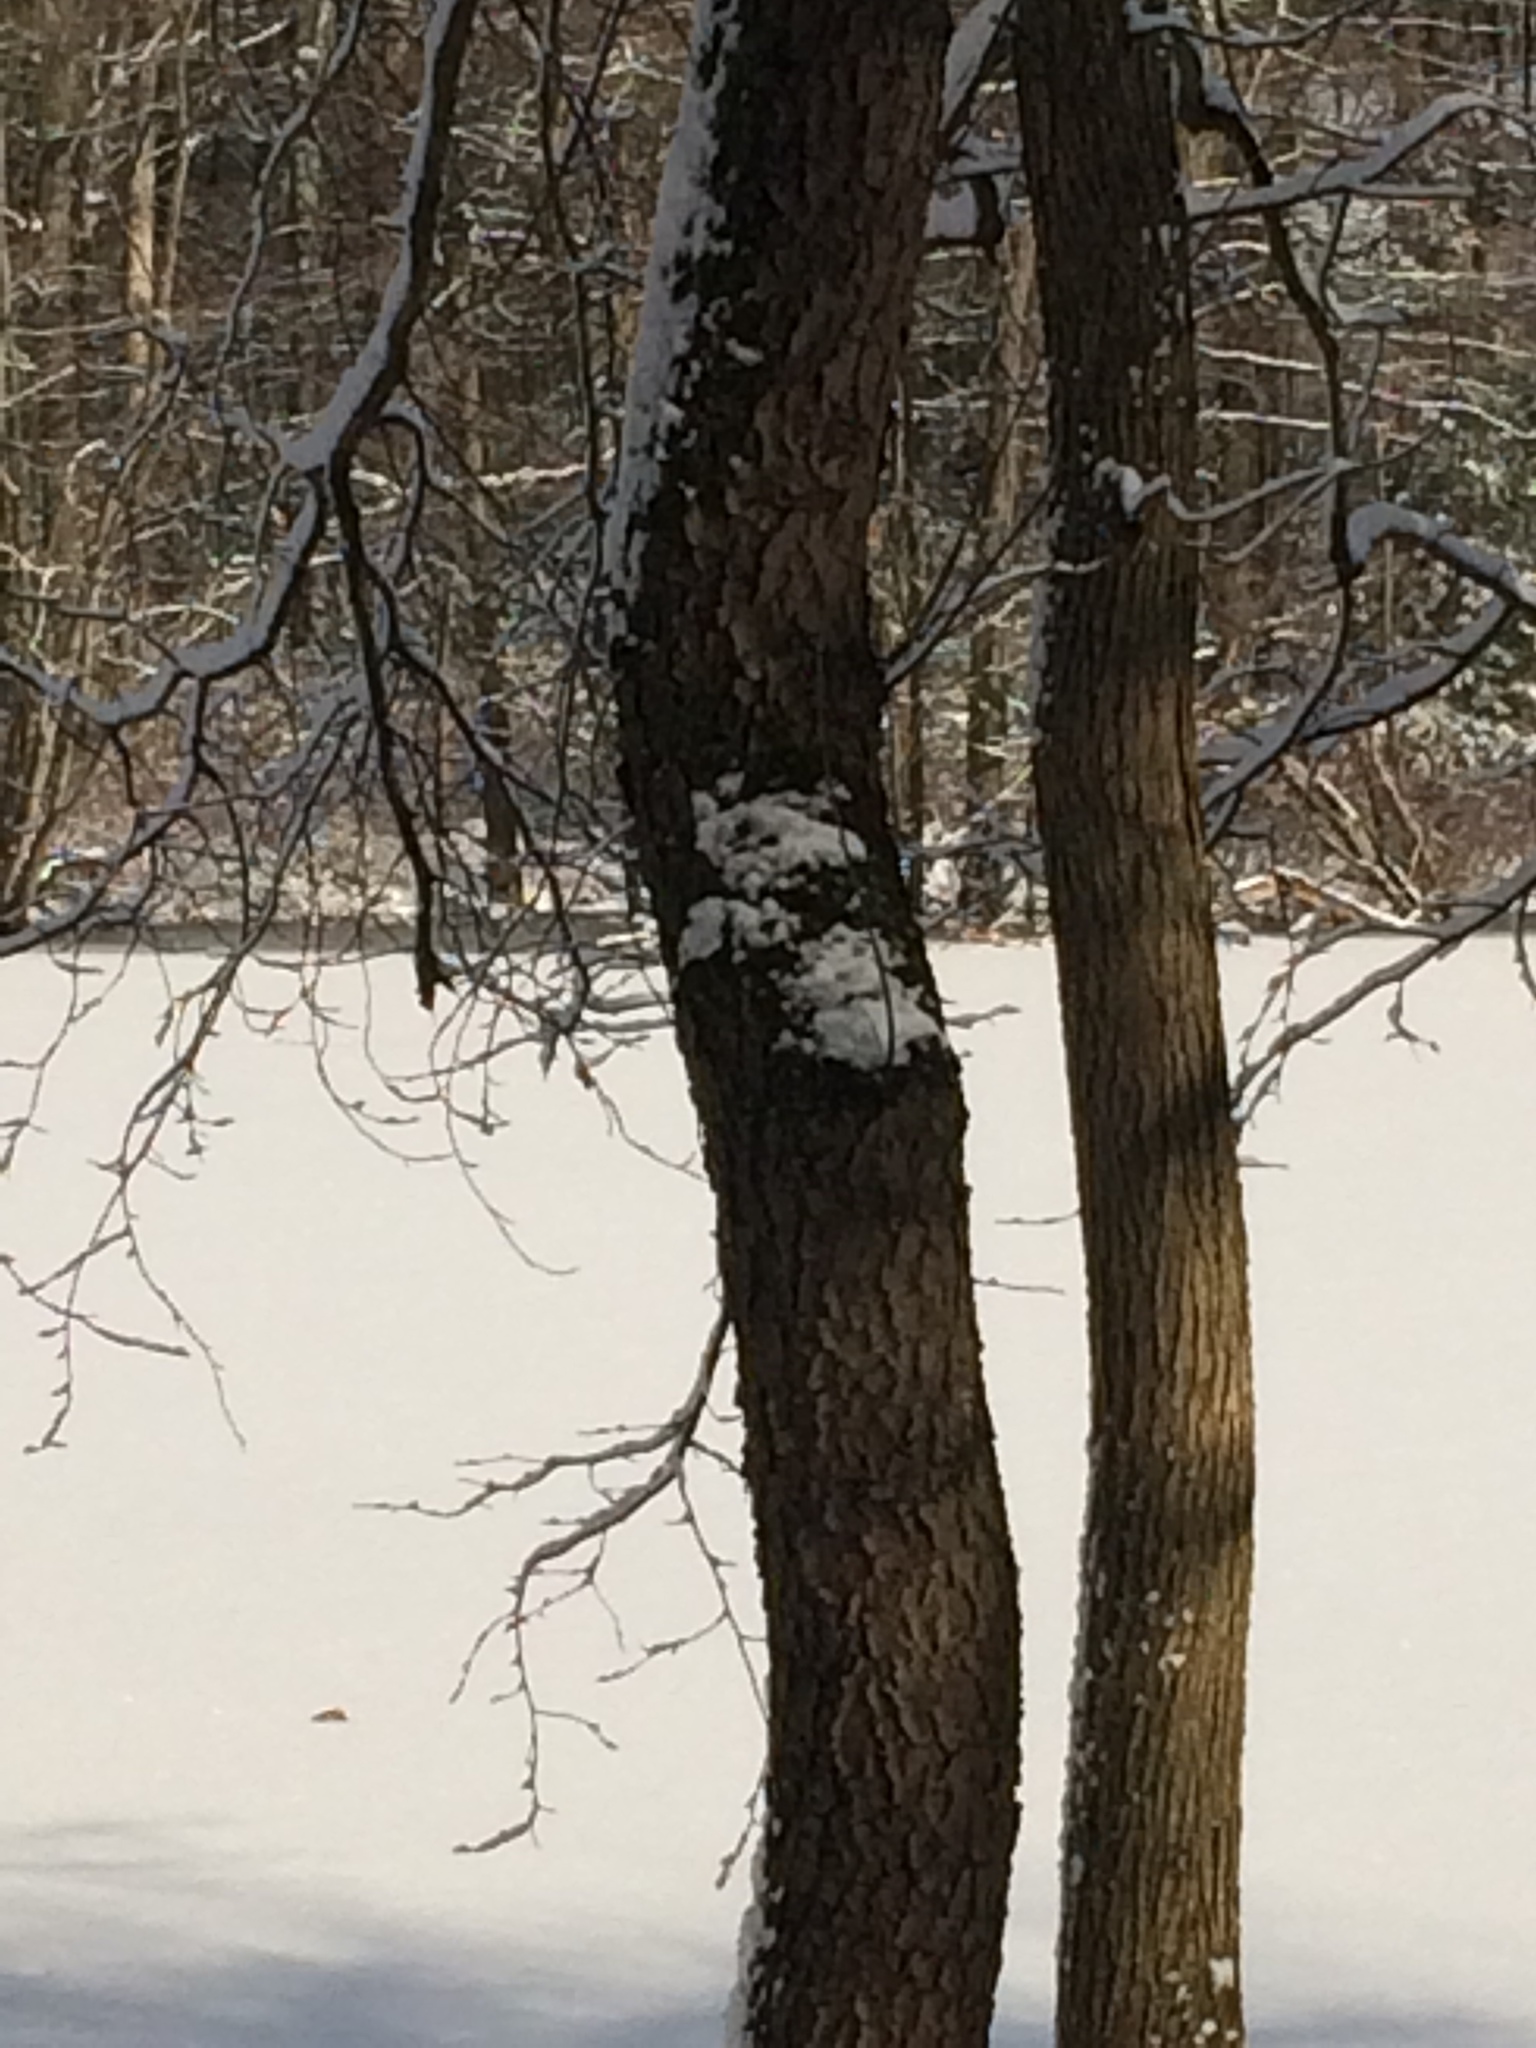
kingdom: Plantae
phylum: Tracheophyta
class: Magnoliopsida
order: Rosales
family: Rosaceae
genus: Prunus
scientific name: Prunus serotina
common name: Black cherry
